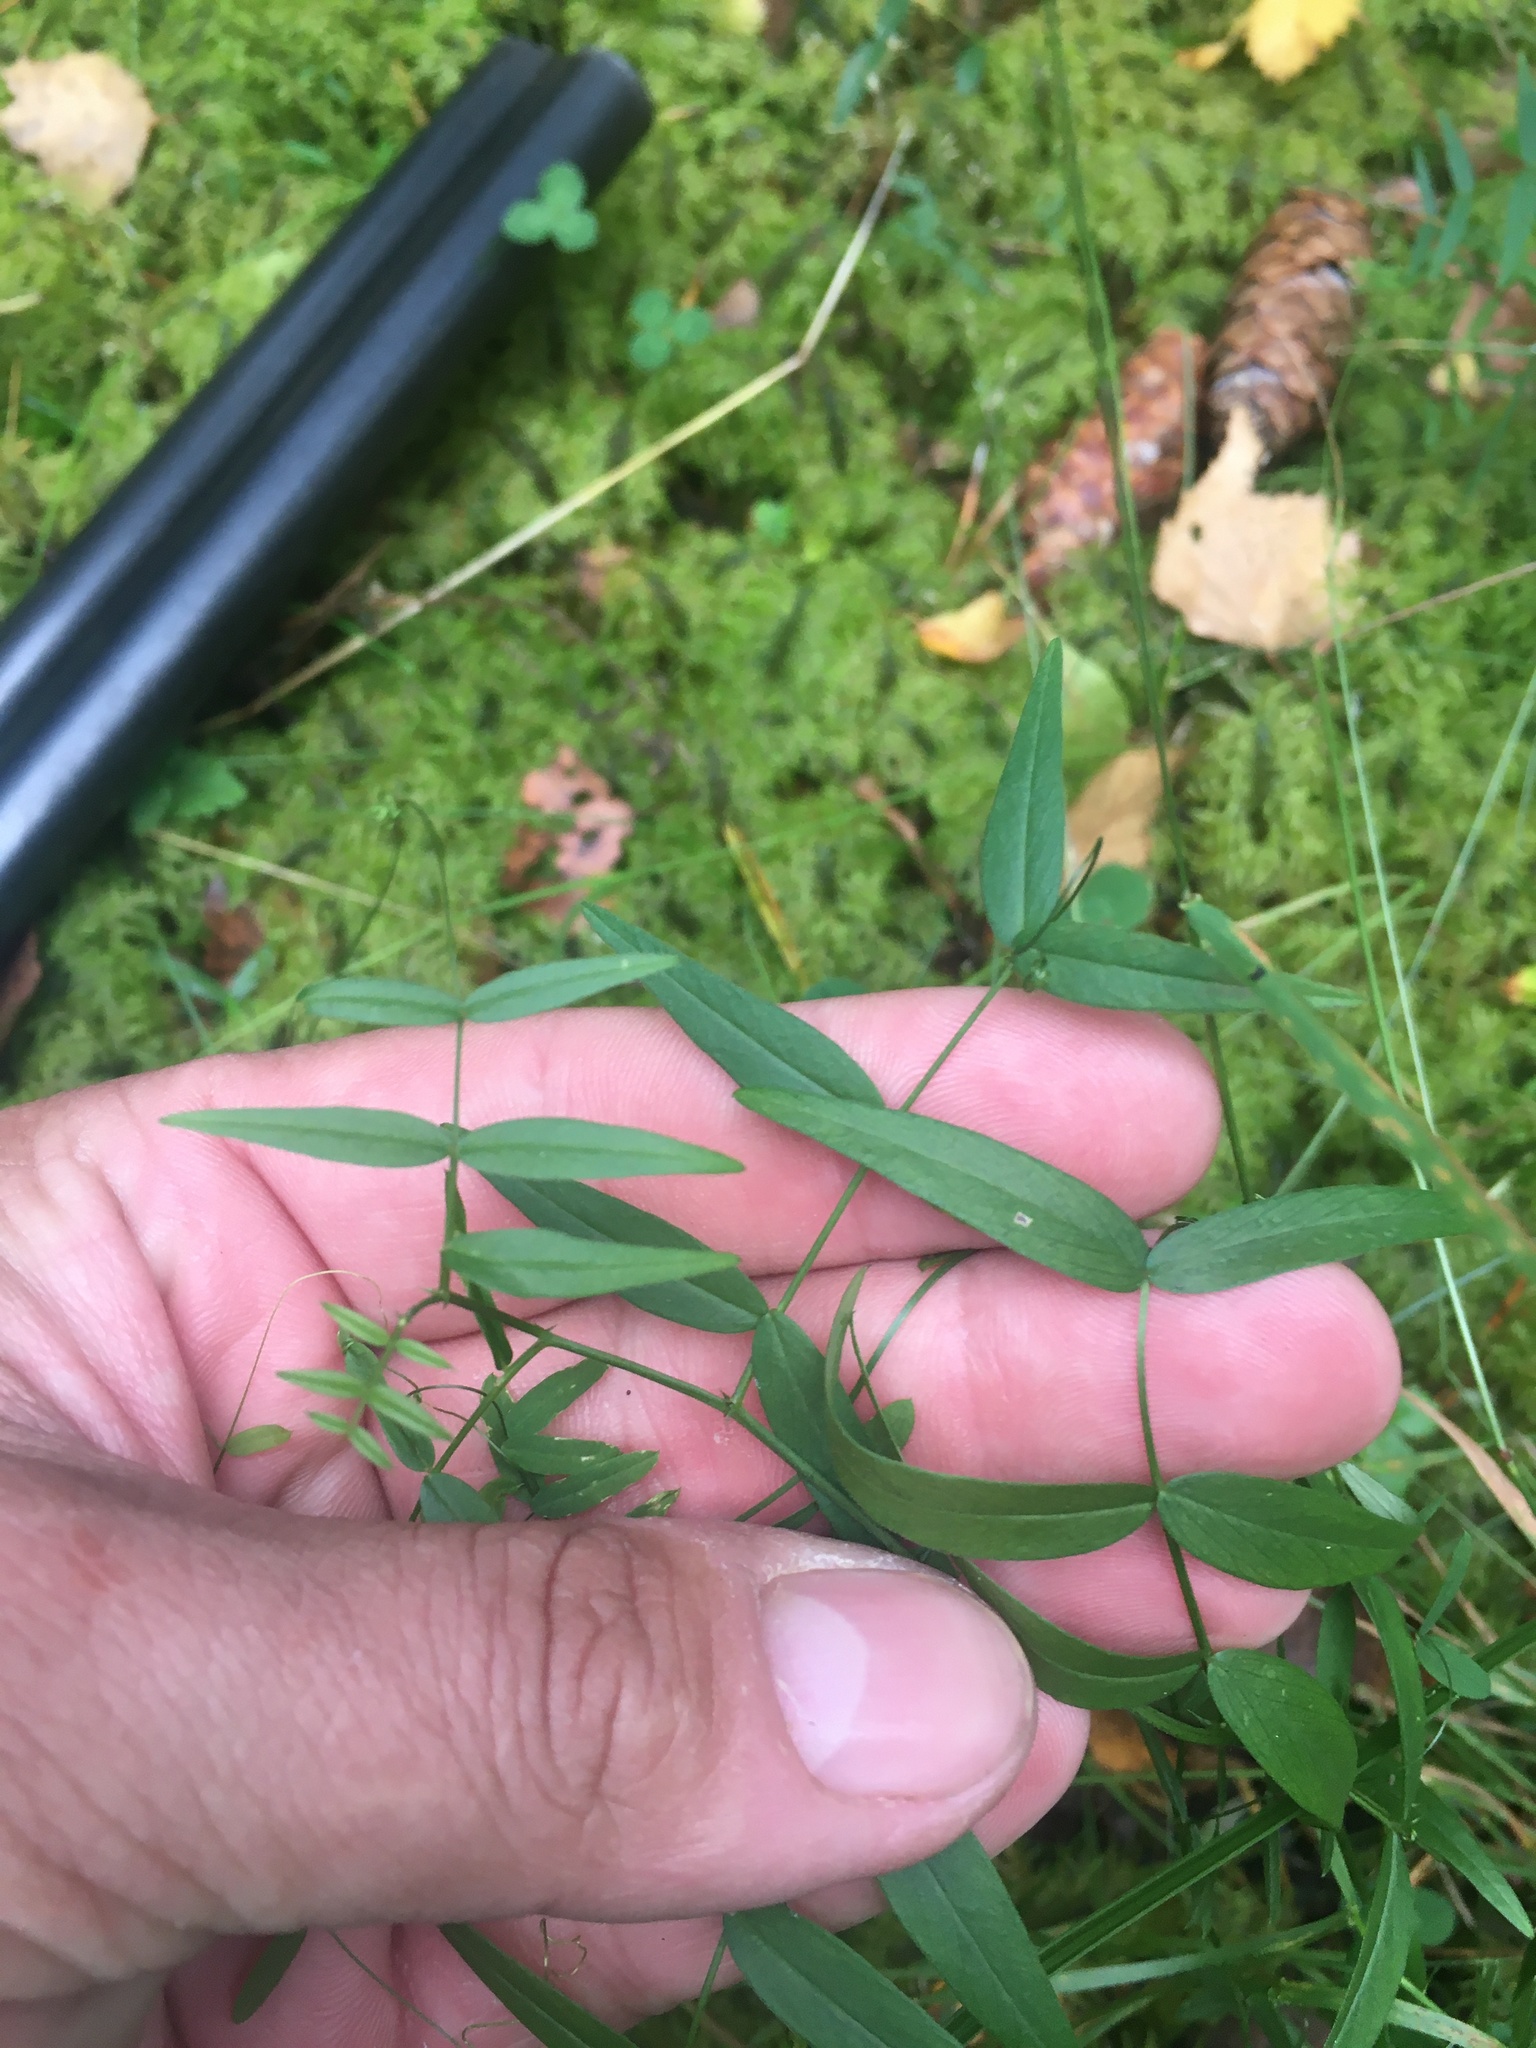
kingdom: Plantae
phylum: Tracheophyta
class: Magnoliopsida
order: Fabales
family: Fabaceae
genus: Lathyrus
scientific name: Lathyrus pratensis
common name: Meadow vetchling
